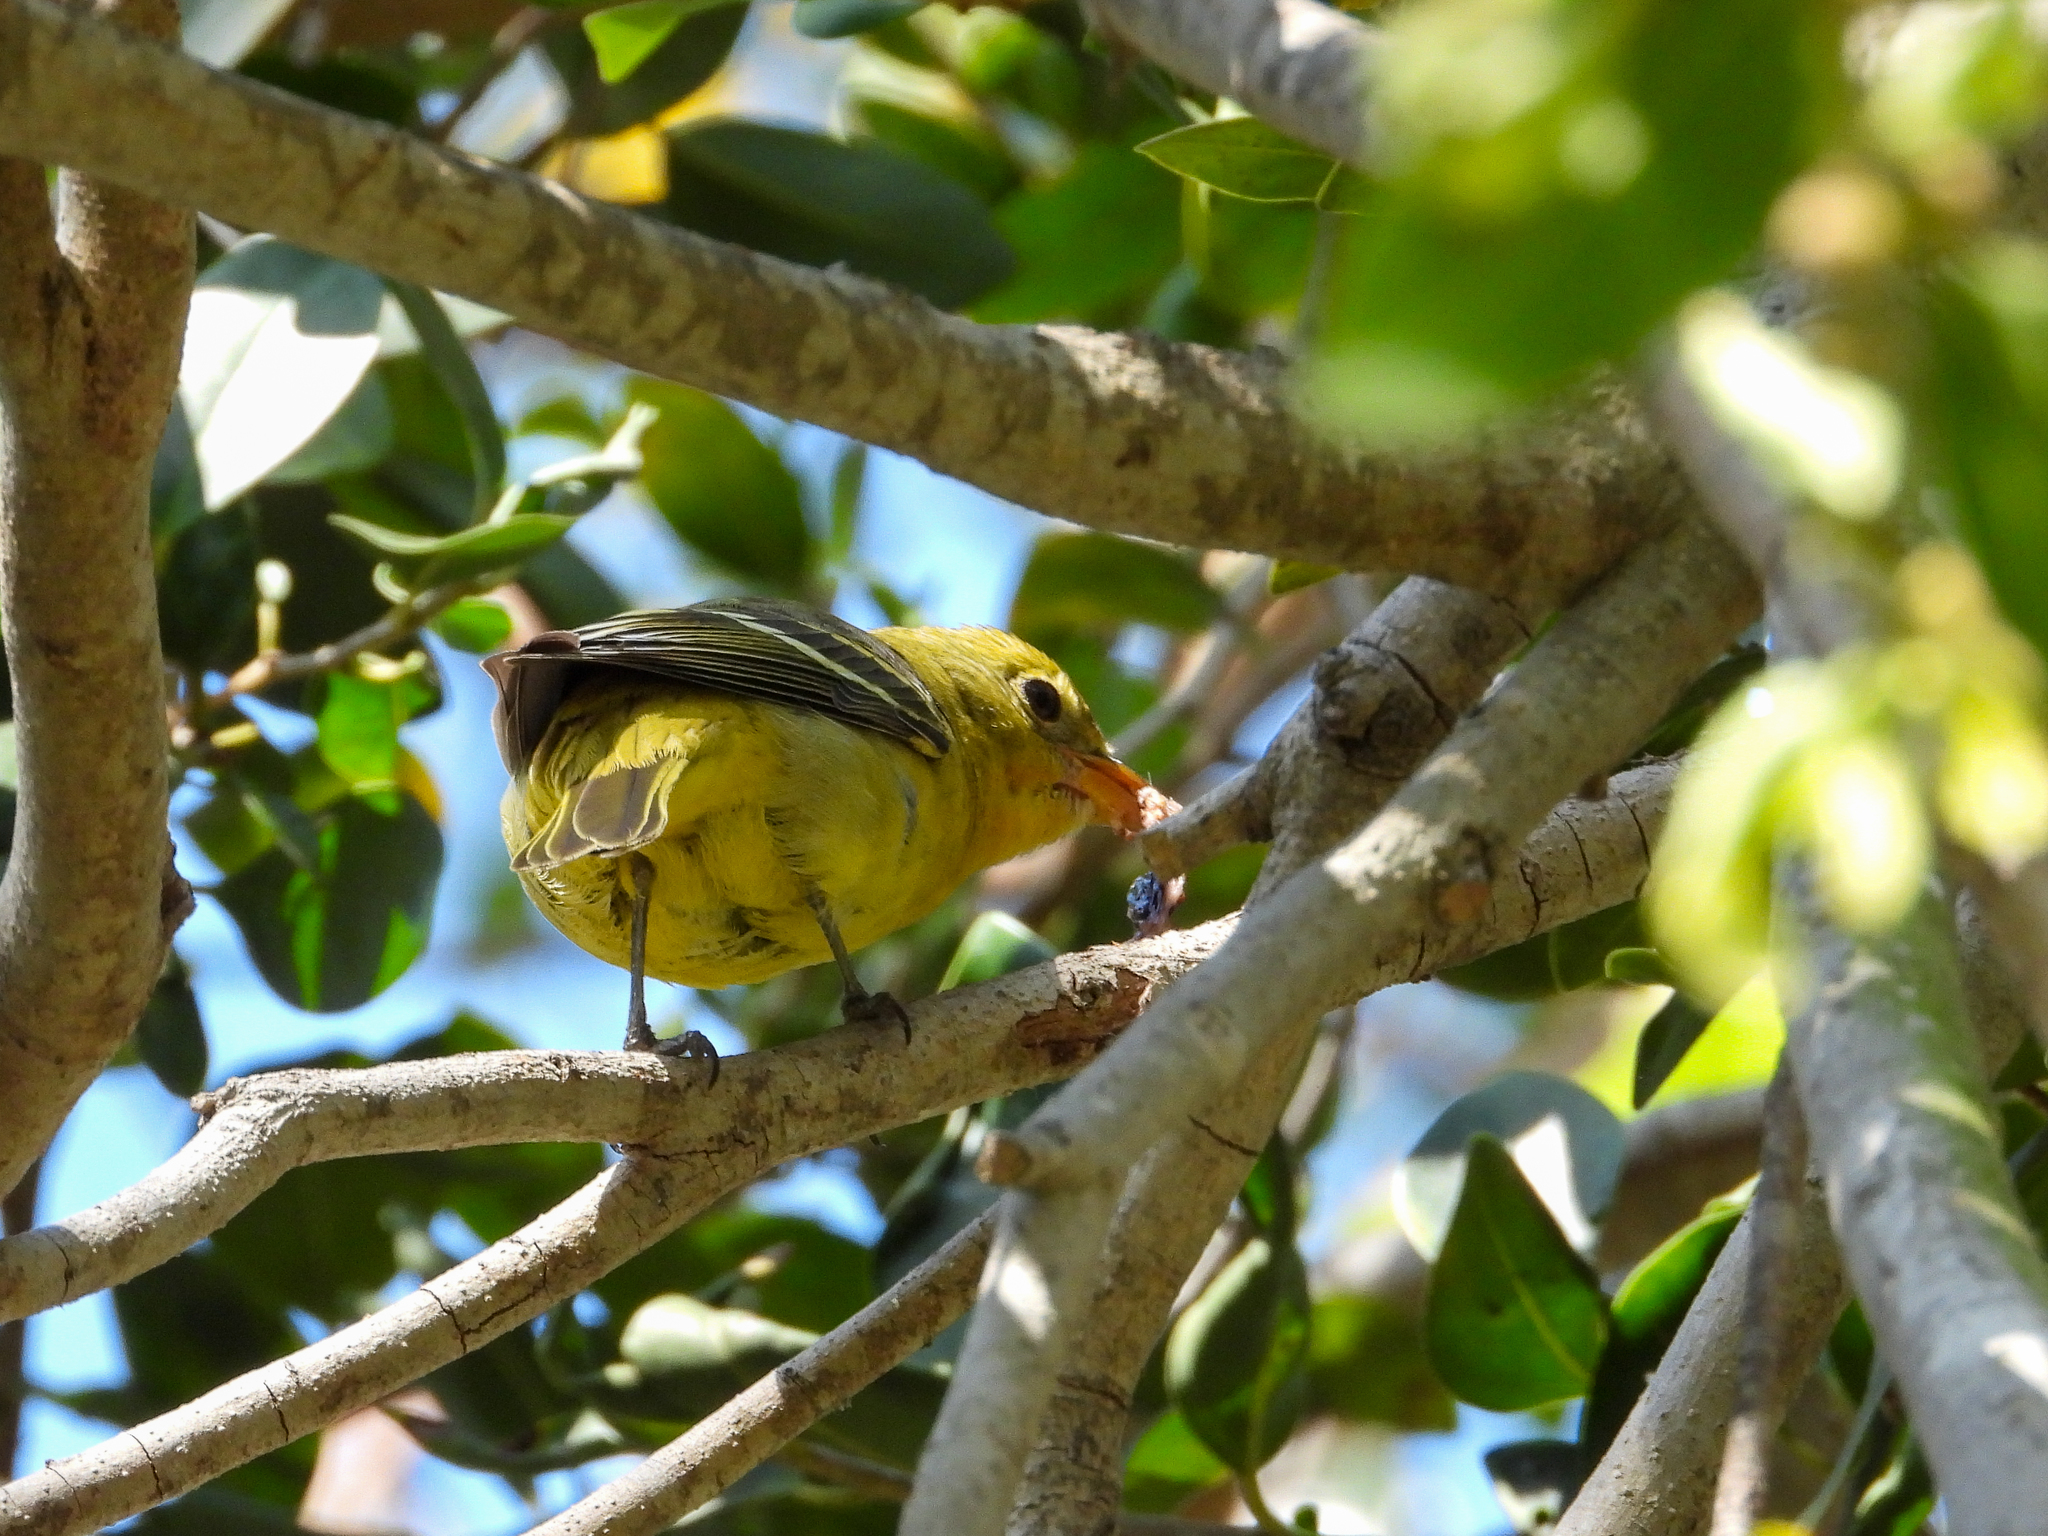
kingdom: Animalia
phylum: Chordata
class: Aves
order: Passeriformes
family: Cardinalidae
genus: Piranga
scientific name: Piranga ludoviciana
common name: Western tanager
